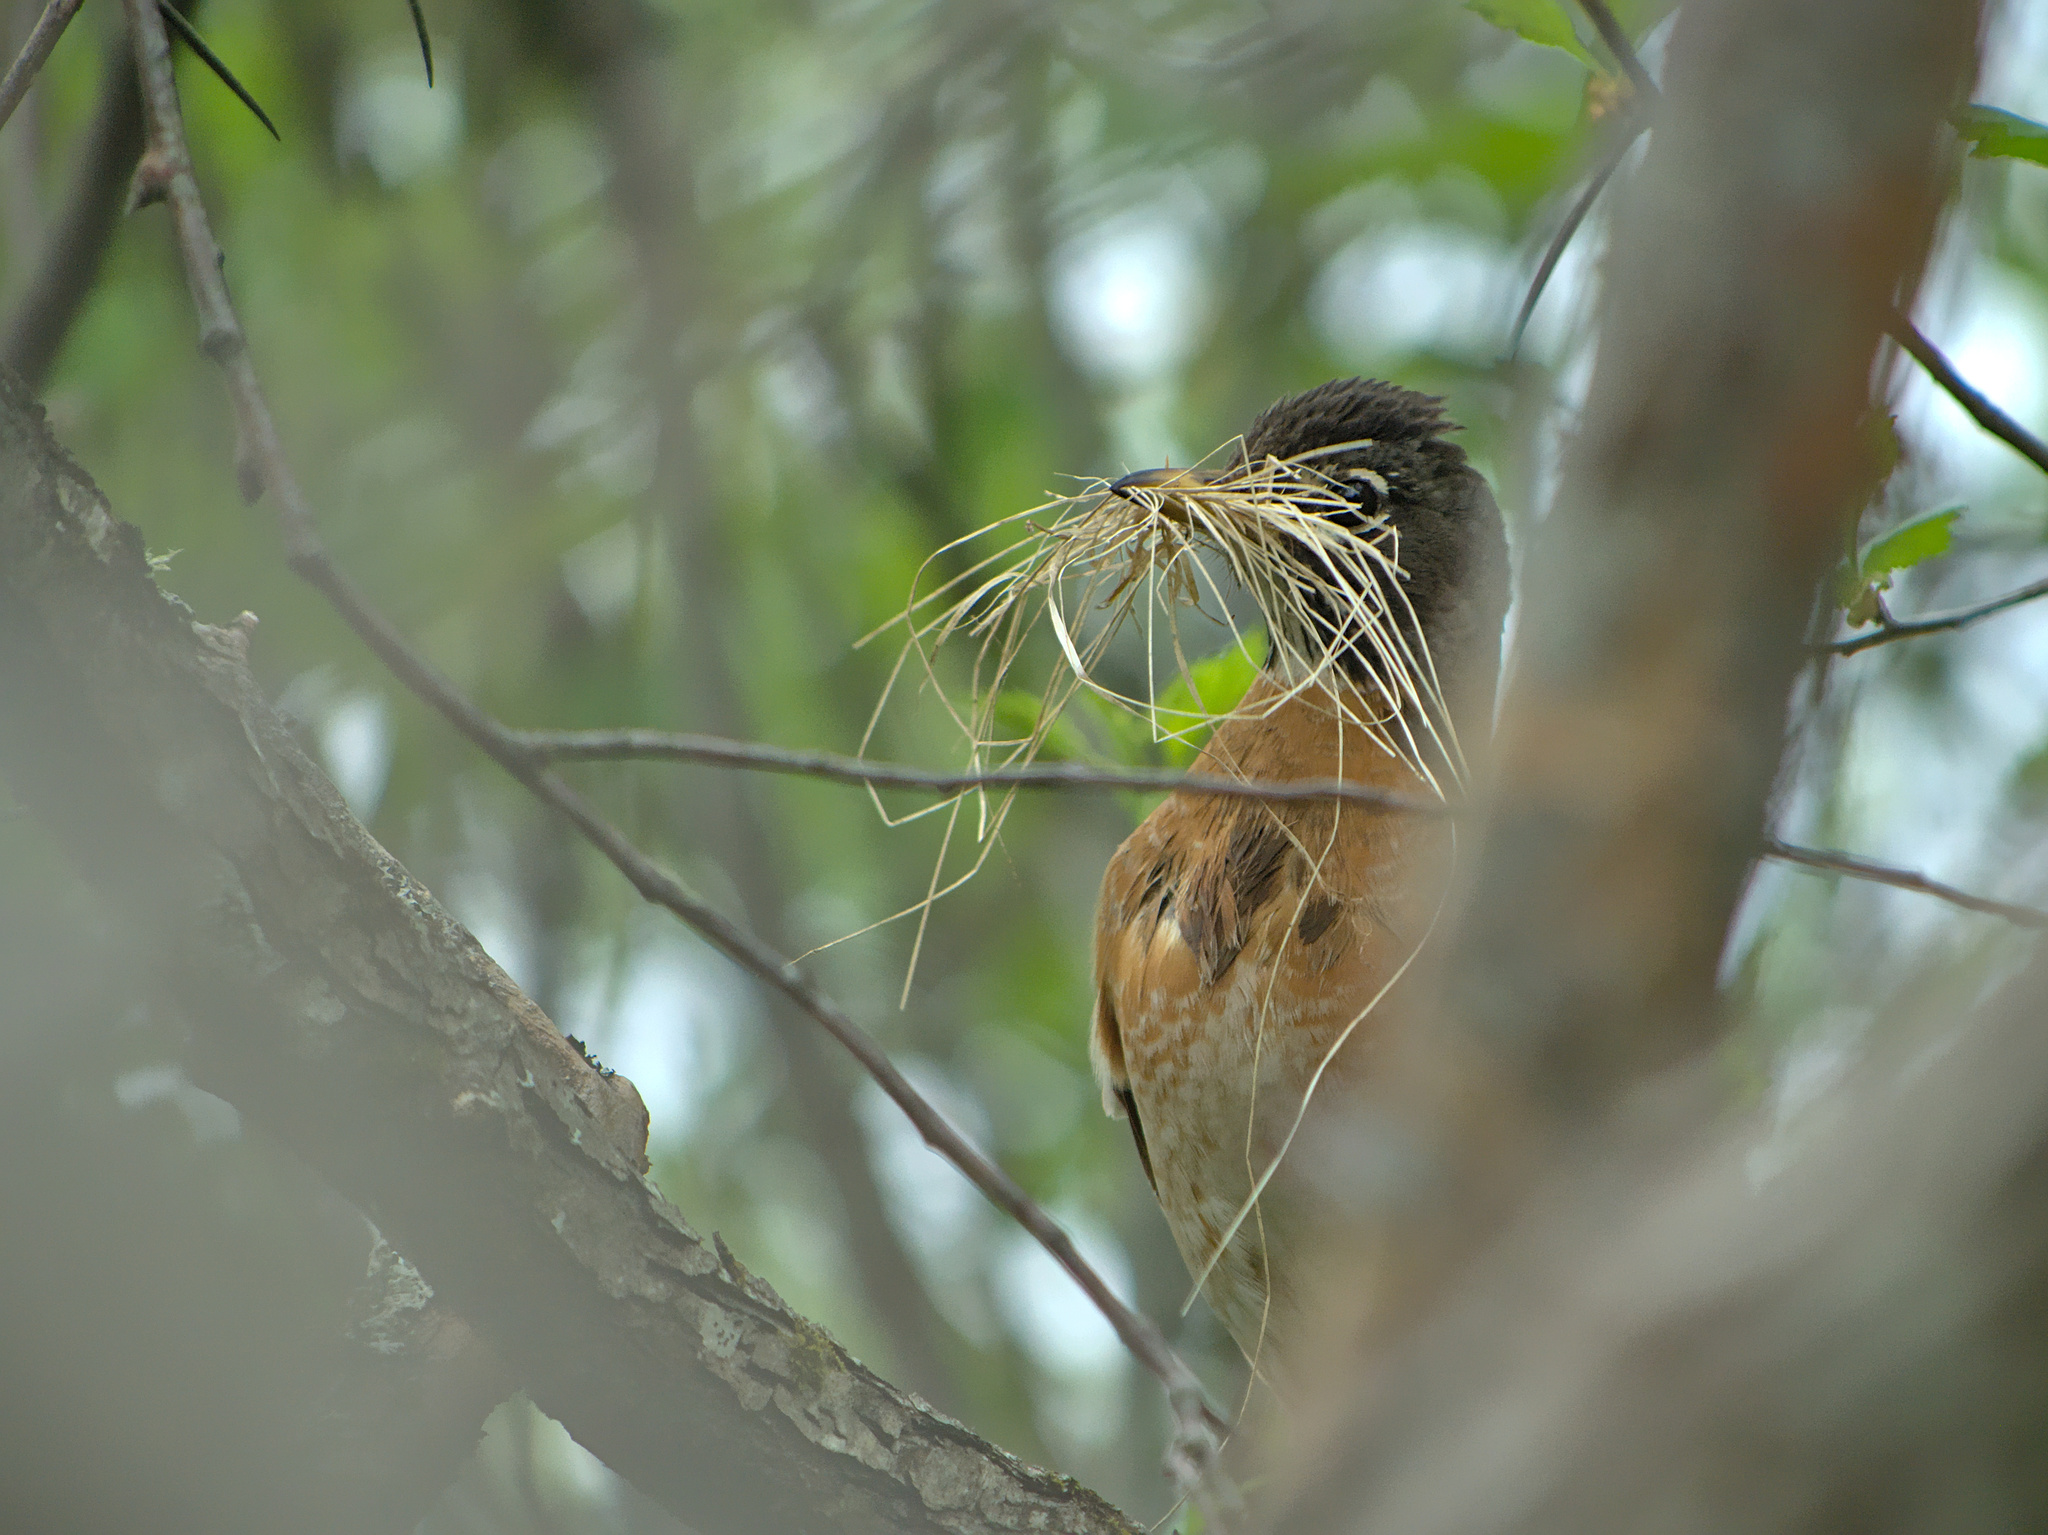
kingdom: Animalia
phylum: Chordata
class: Aves
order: Passeriformes
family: Turdidae
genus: Turdus
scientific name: Turdus migratorius
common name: American robin
